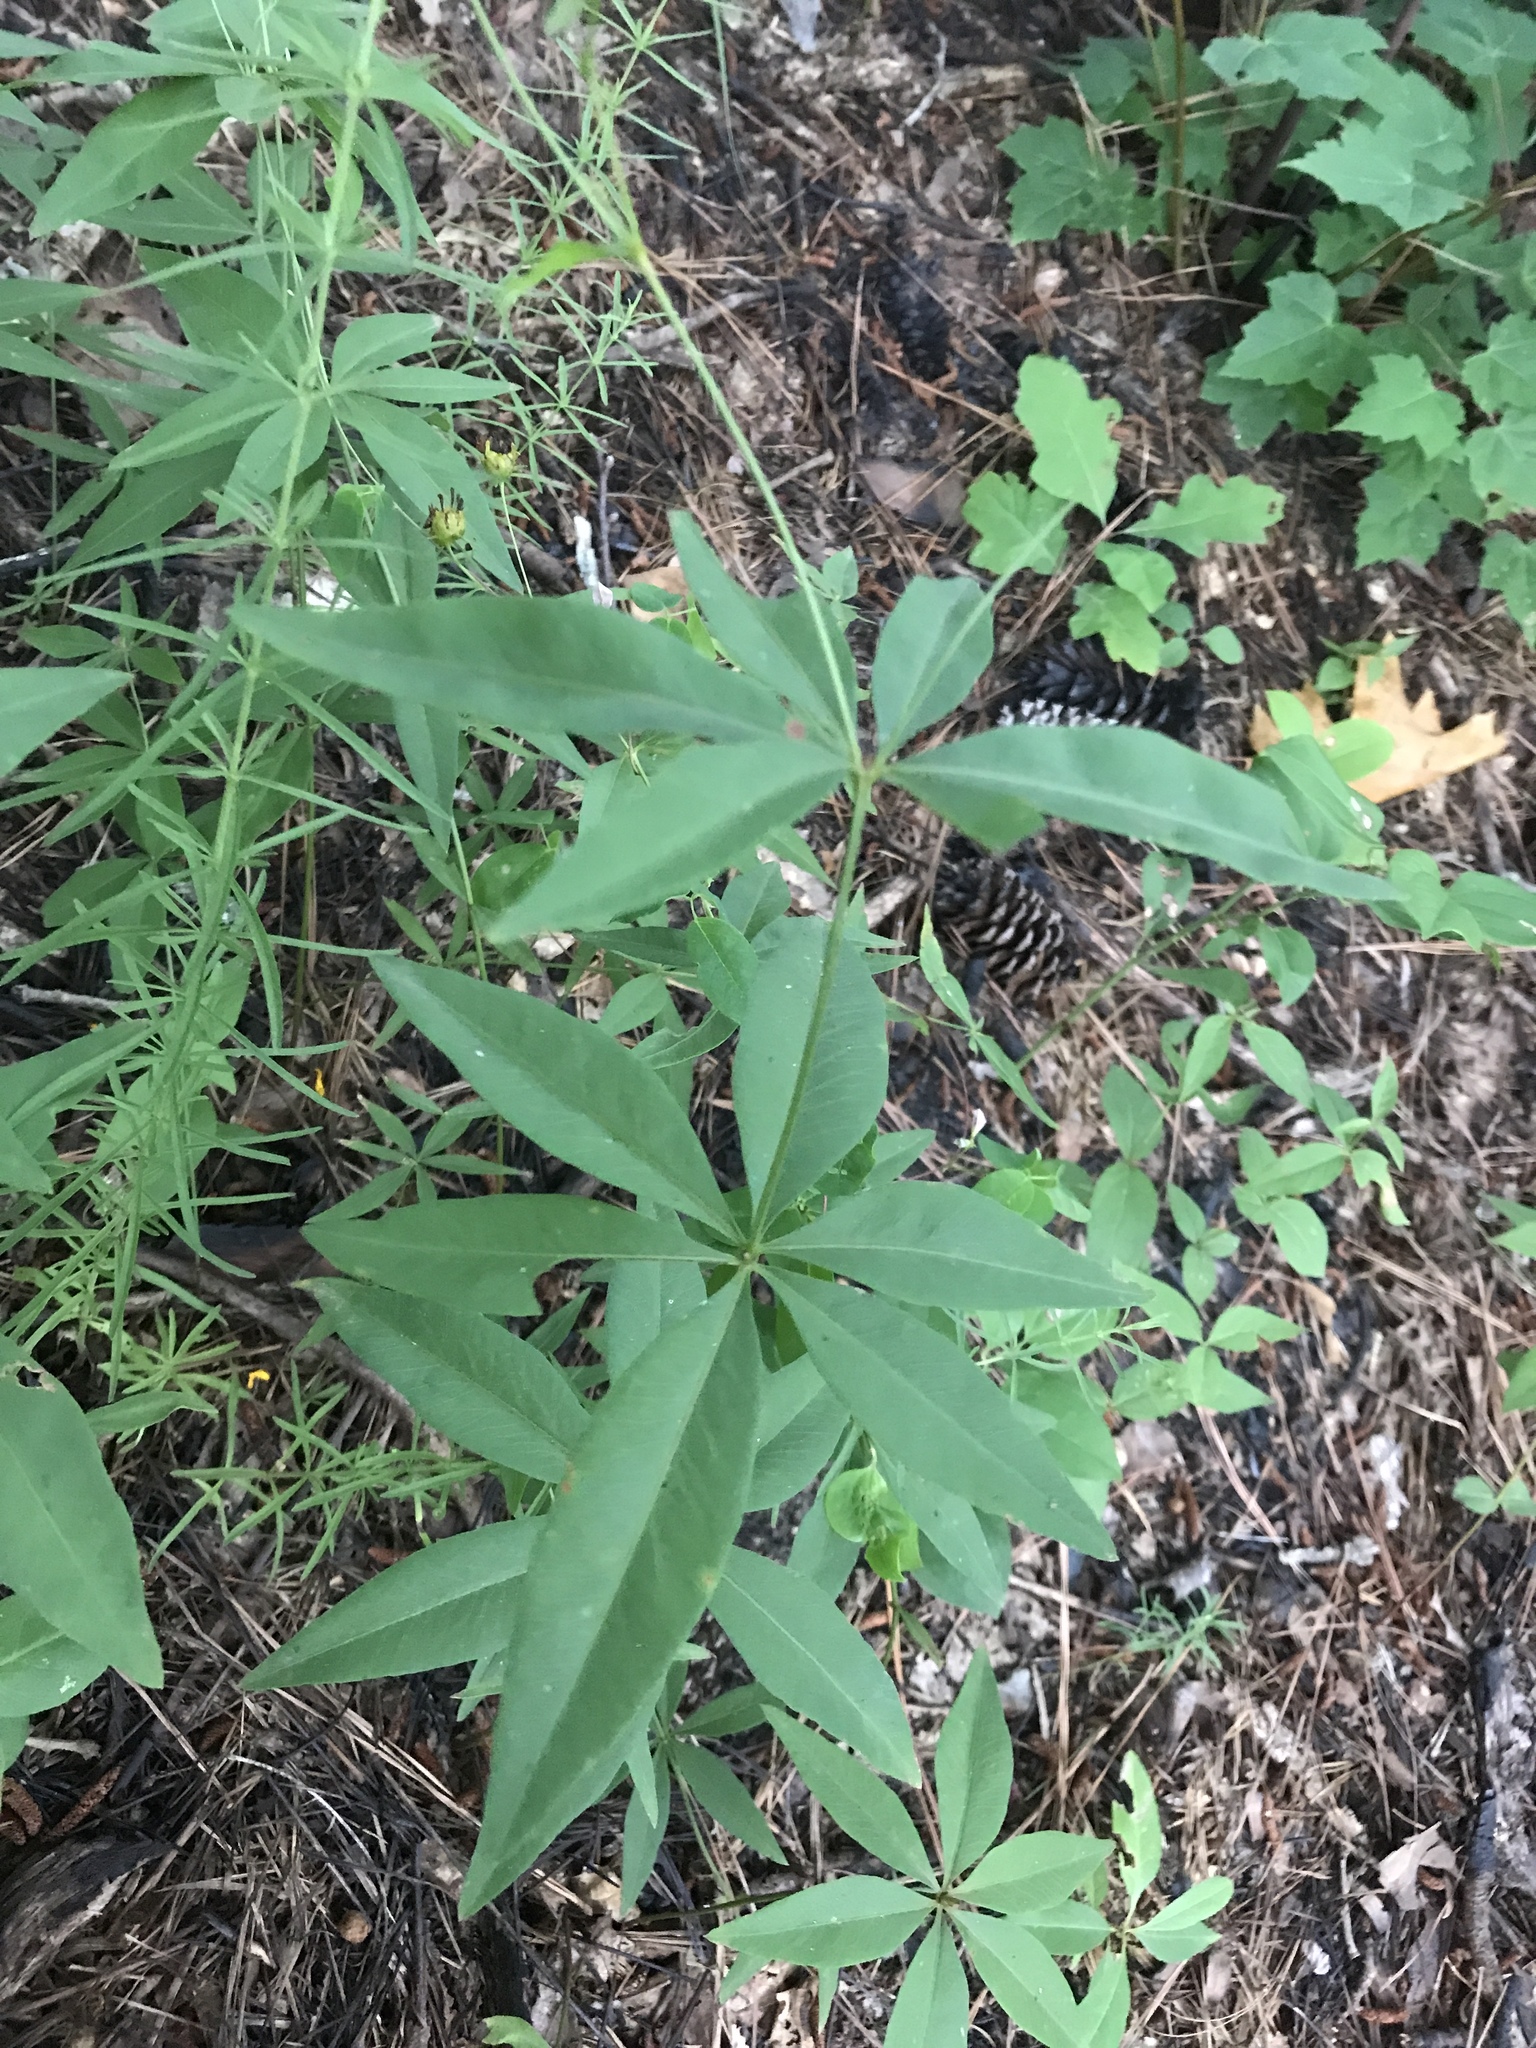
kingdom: Plantae
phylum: Tracheophyta
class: Magnoliopsida
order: Asterales
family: Asteraceae
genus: Coreopsis
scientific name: Coreopsis major
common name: Forest tickseed
